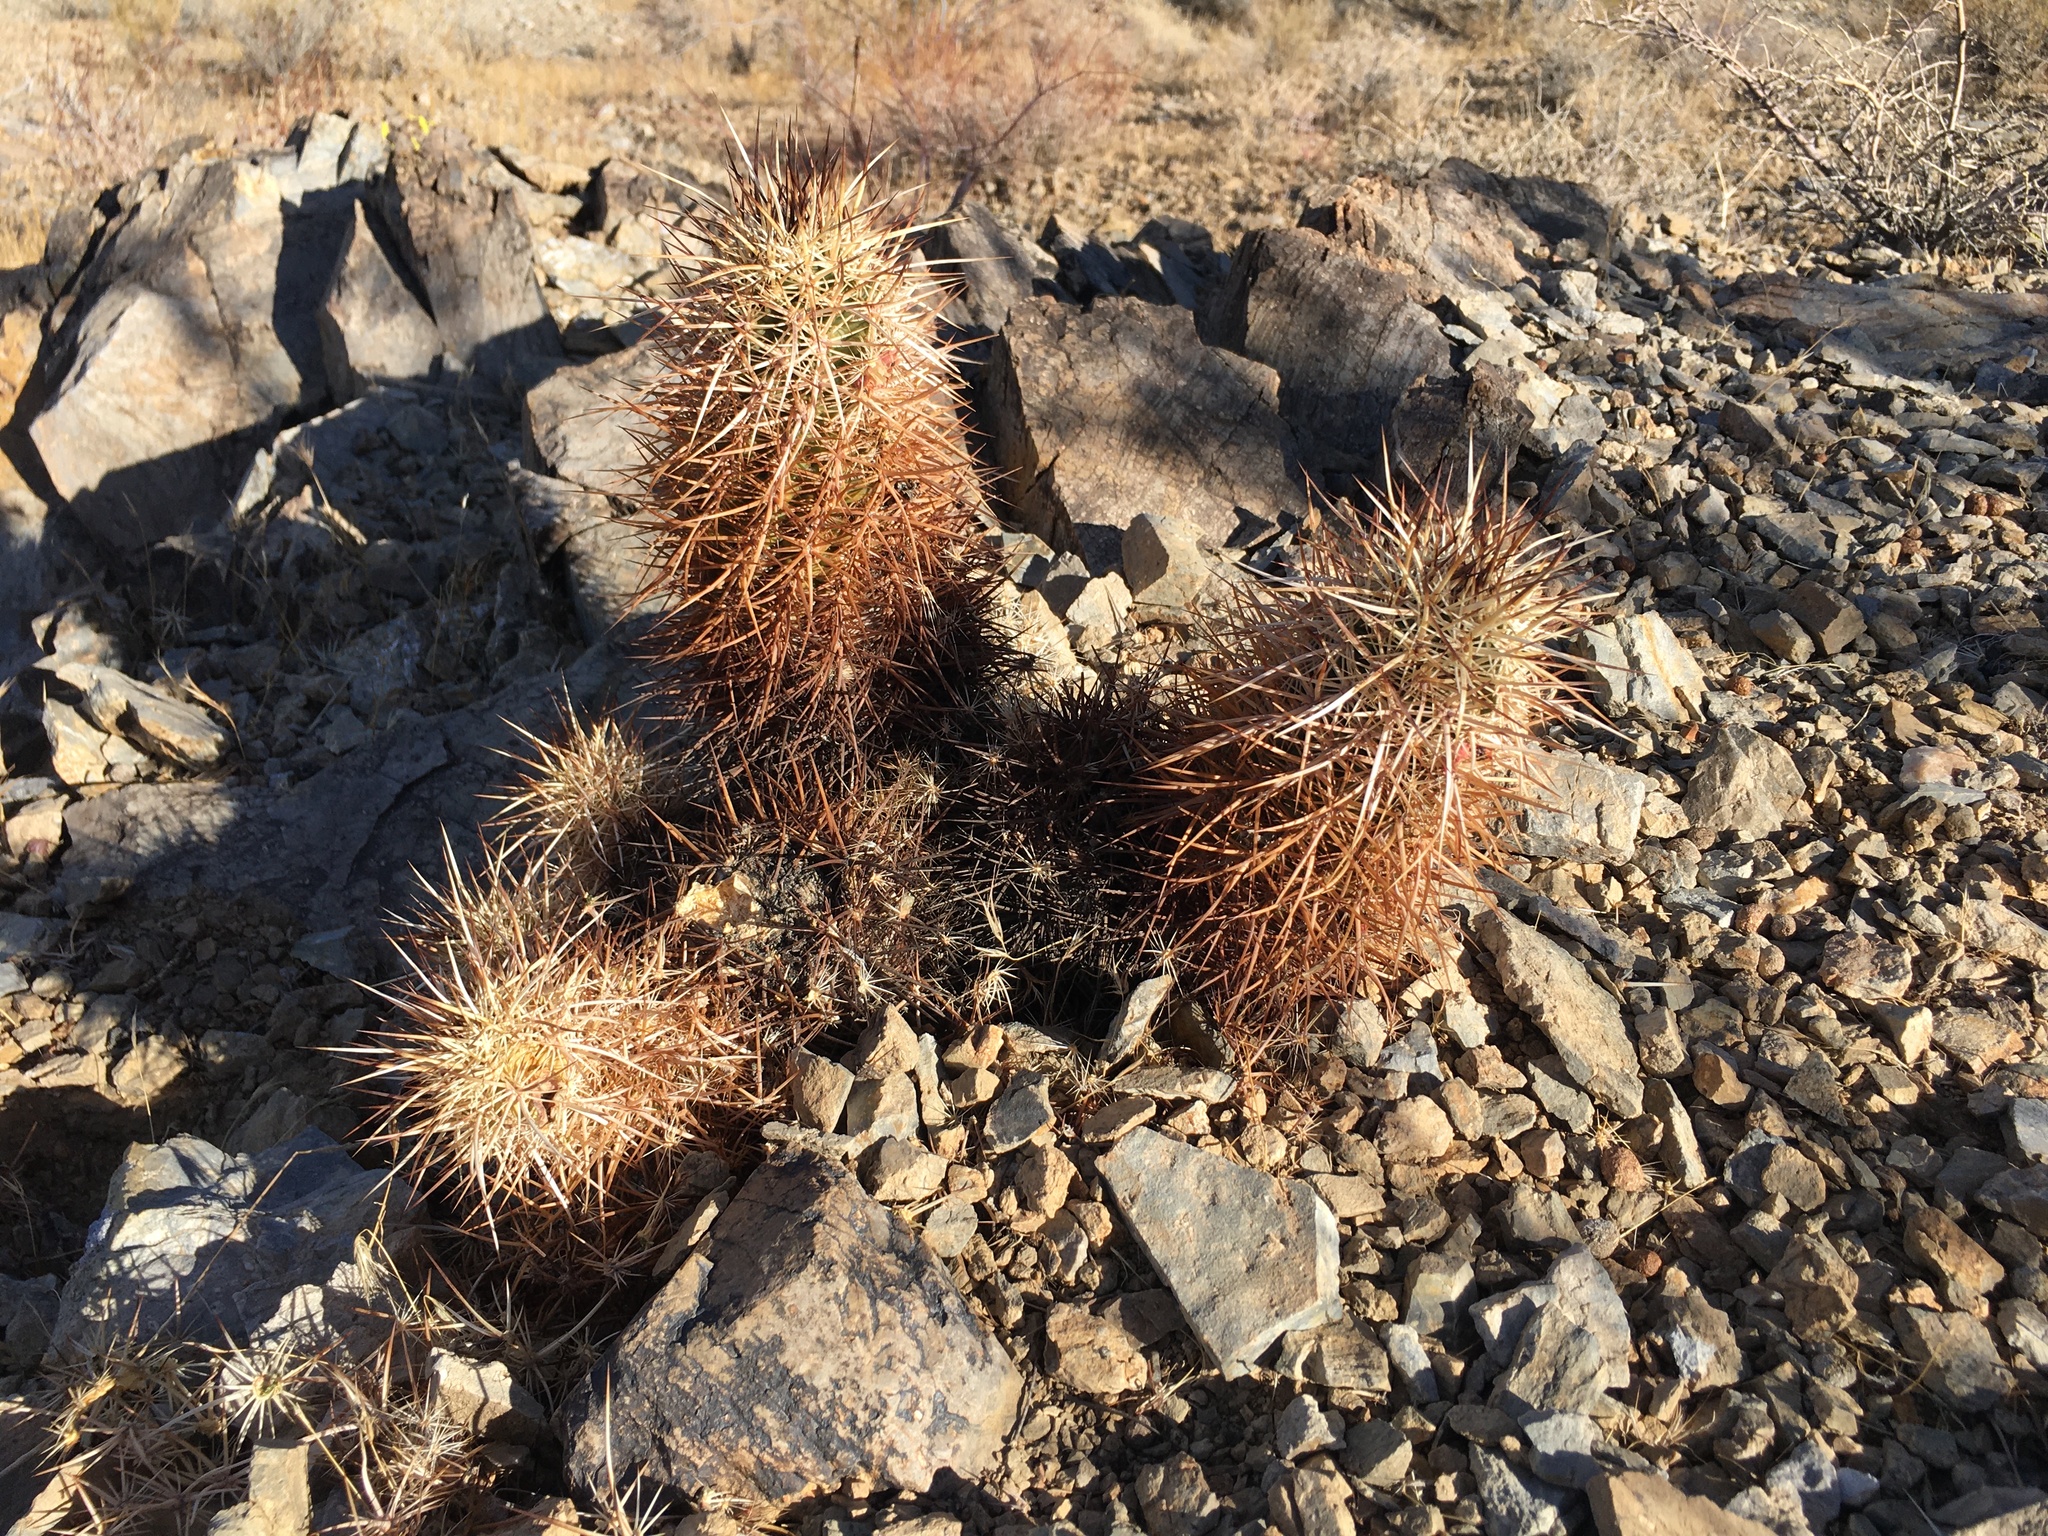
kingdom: Plantae
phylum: Tracheophyta
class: Magnoliopsida
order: Caryophyllales
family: Cactaceae
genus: Echinocereus
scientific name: Echinocereus engelmannii
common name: Engelmann's hedgehog cactus
